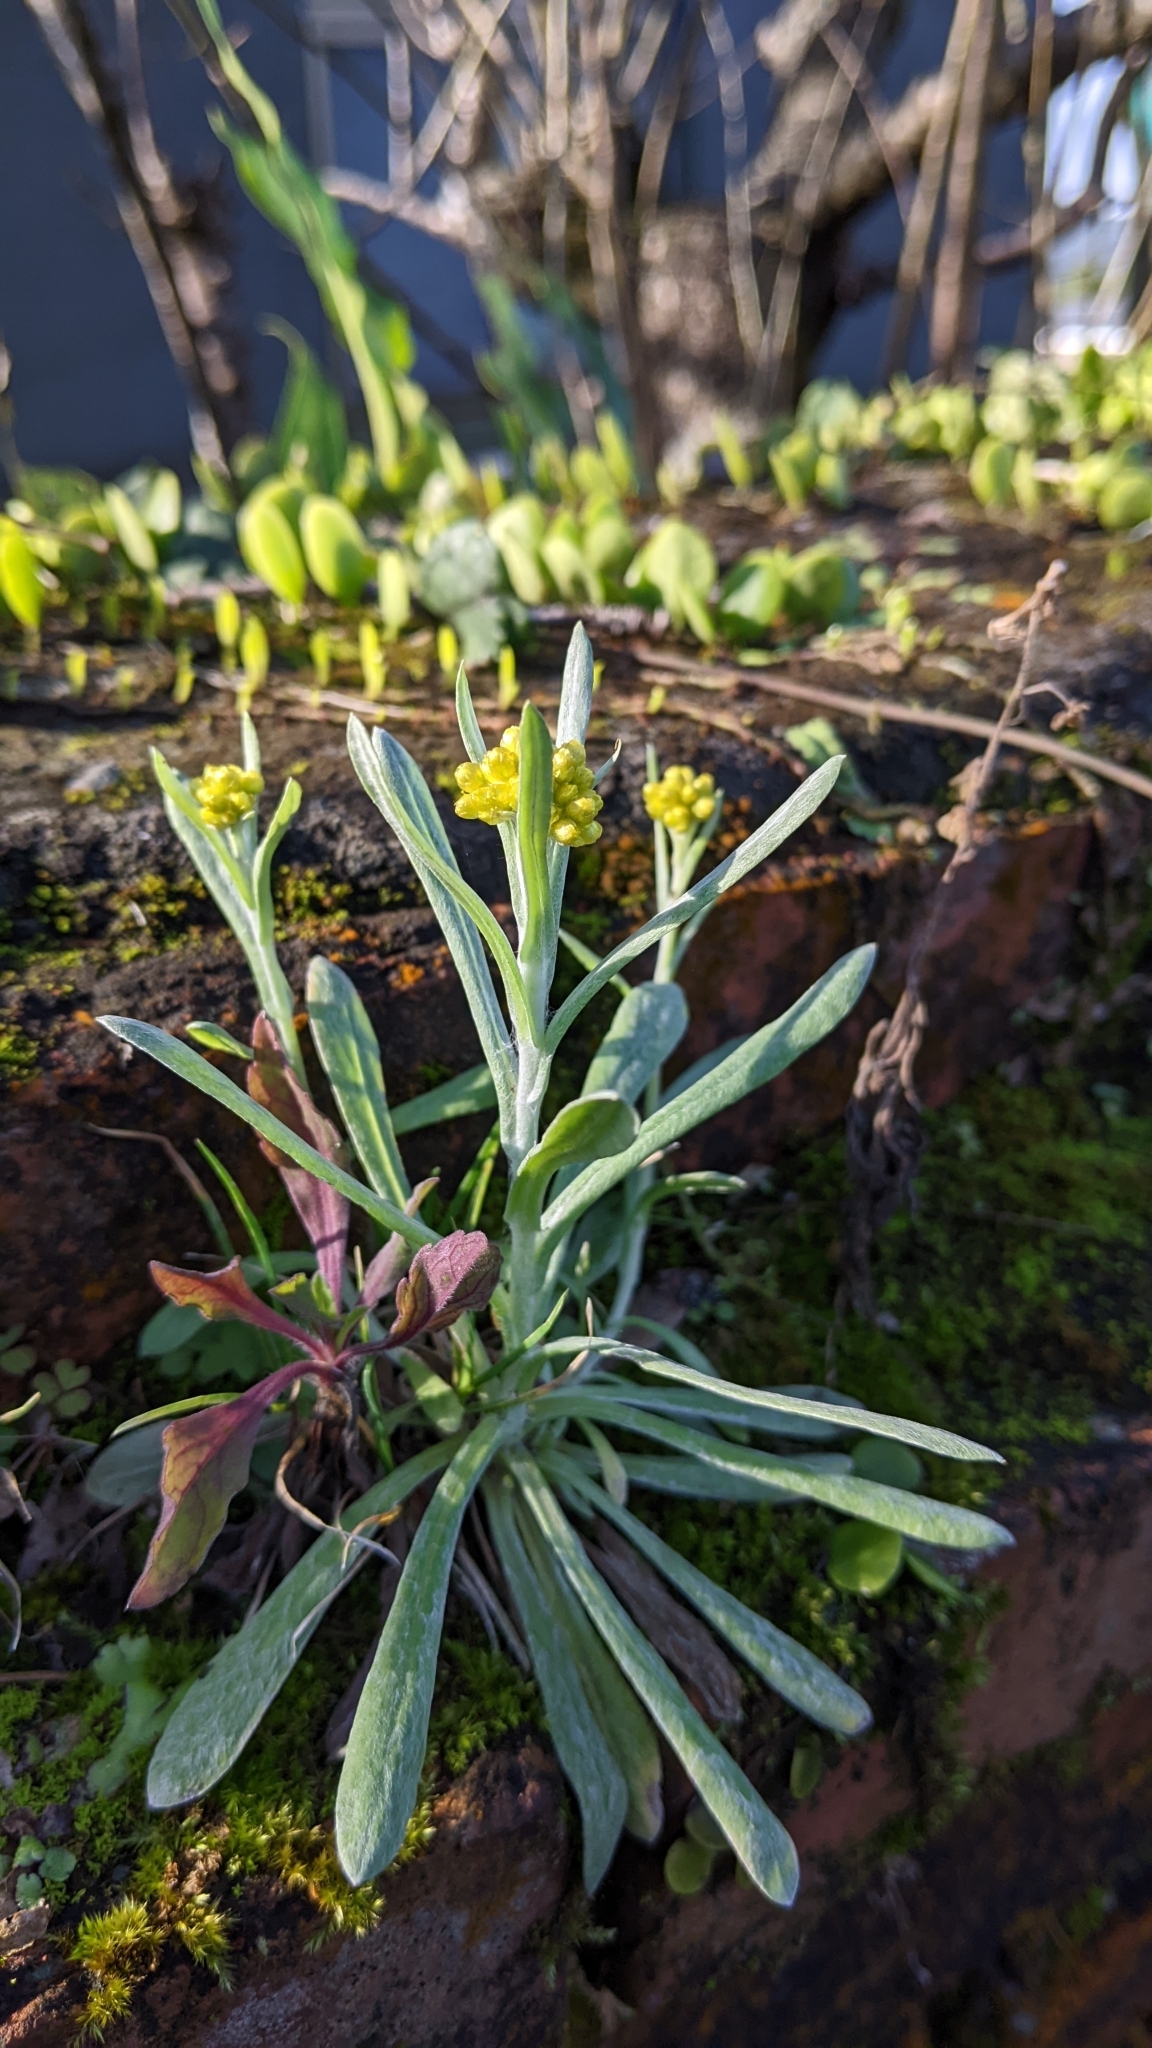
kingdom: Plantae
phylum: Tracheophyta
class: Magnoliopsida
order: Asterales
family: Asteraceae
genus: Pseudognaphalium
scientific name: Pseudognaphalium affine
